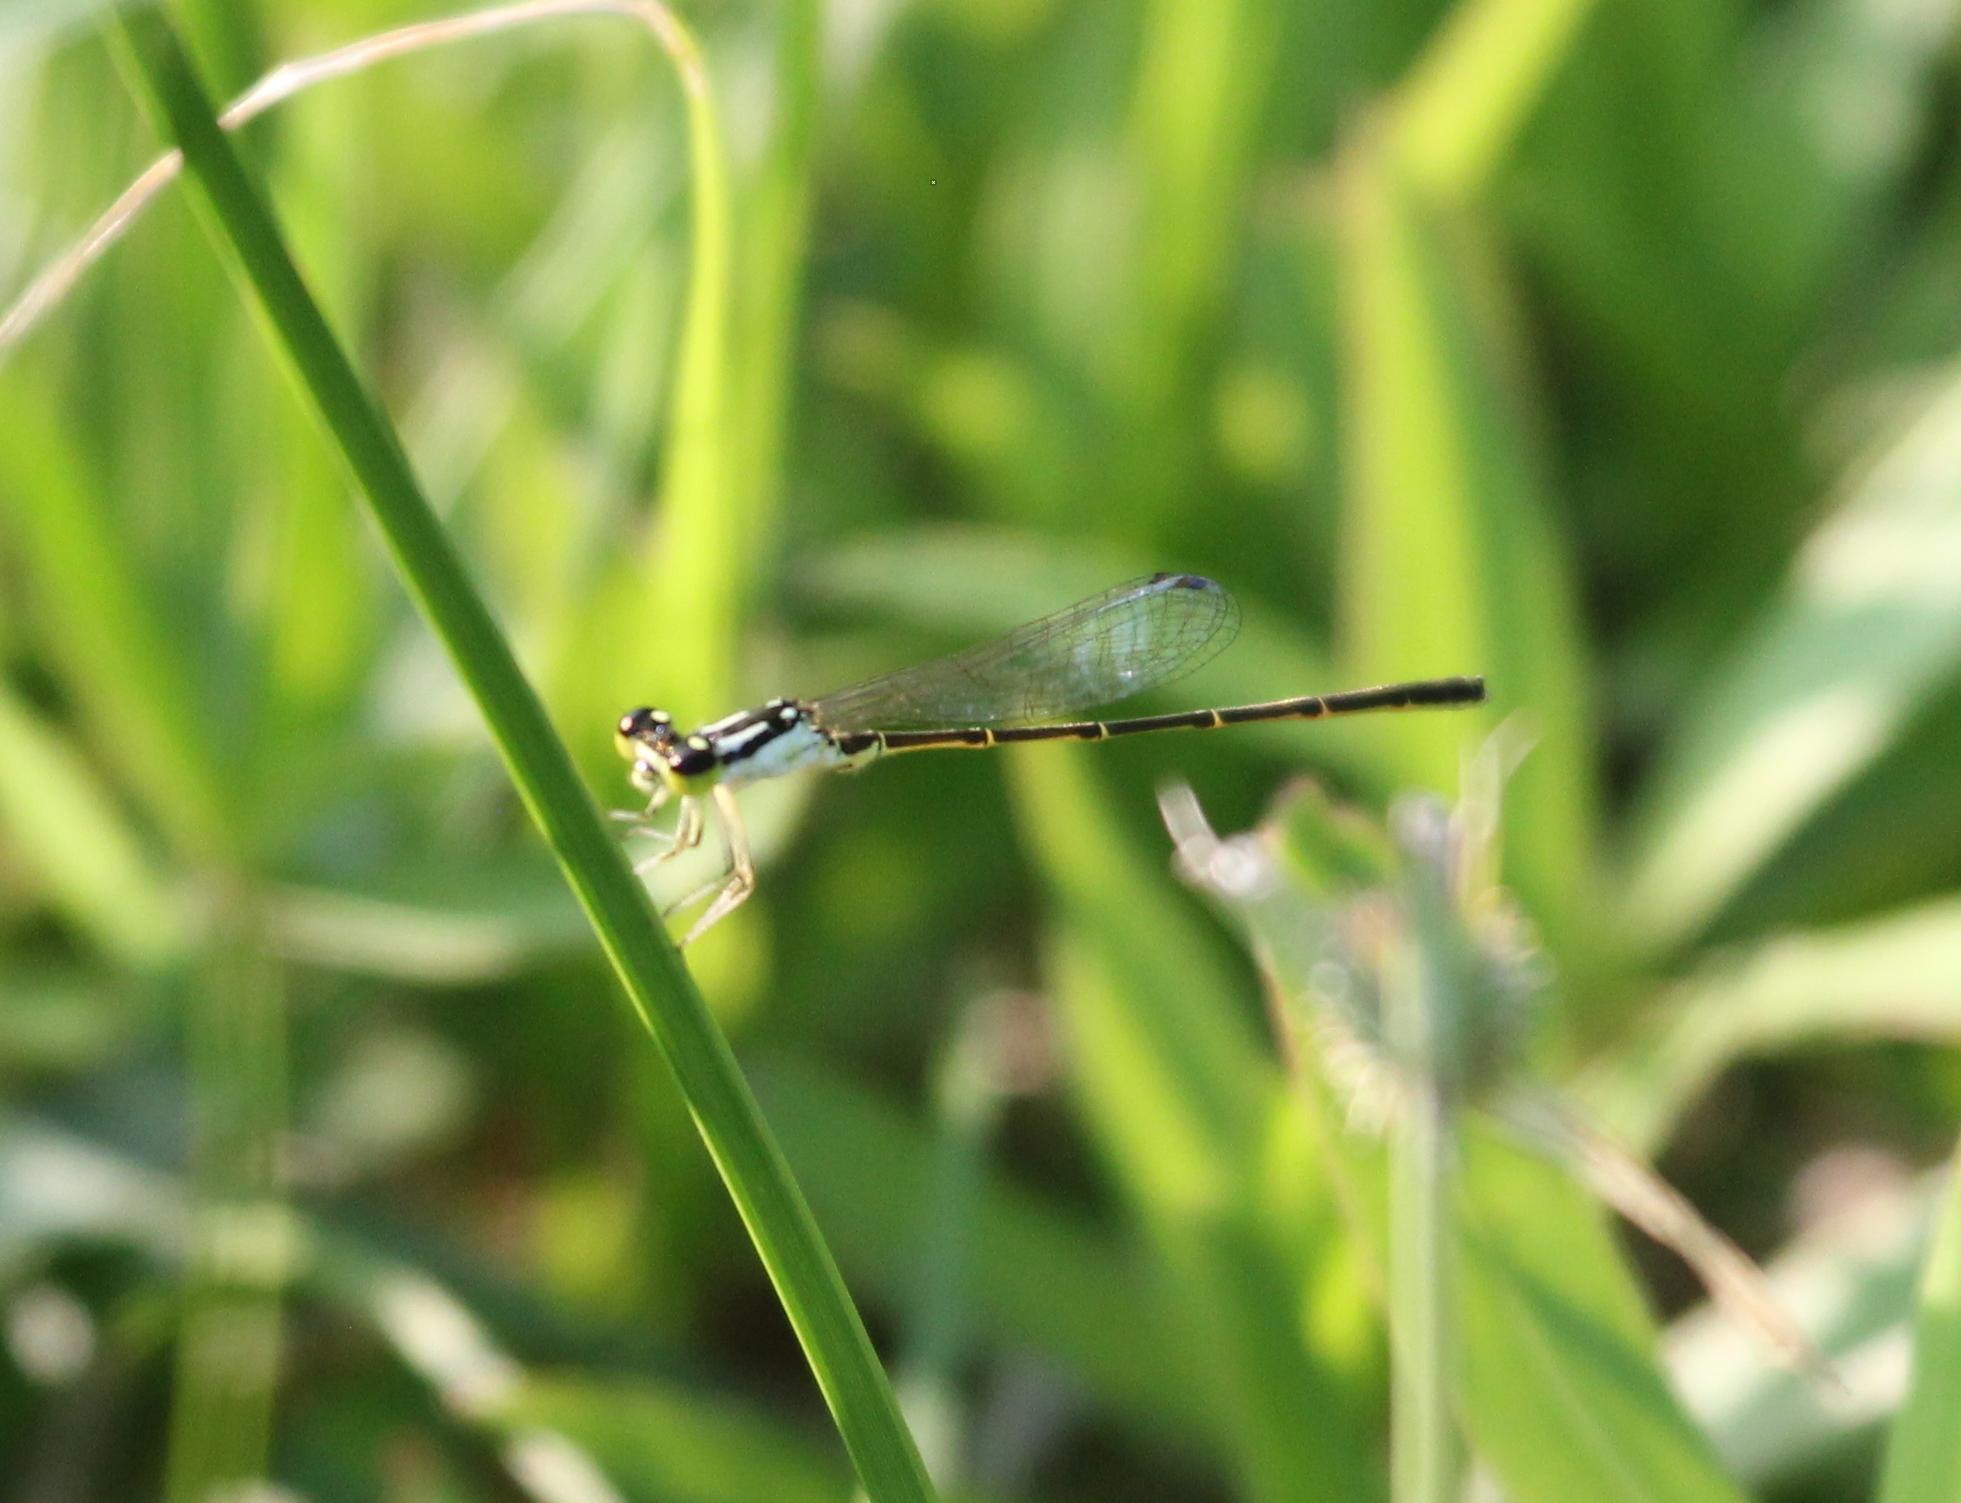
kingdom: Animalia
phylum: Arthropoda
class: Insecta
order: Odonata
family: Coenagrionidae
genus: Ischnura
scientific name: Ischnura posita
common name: Fragile forktail
